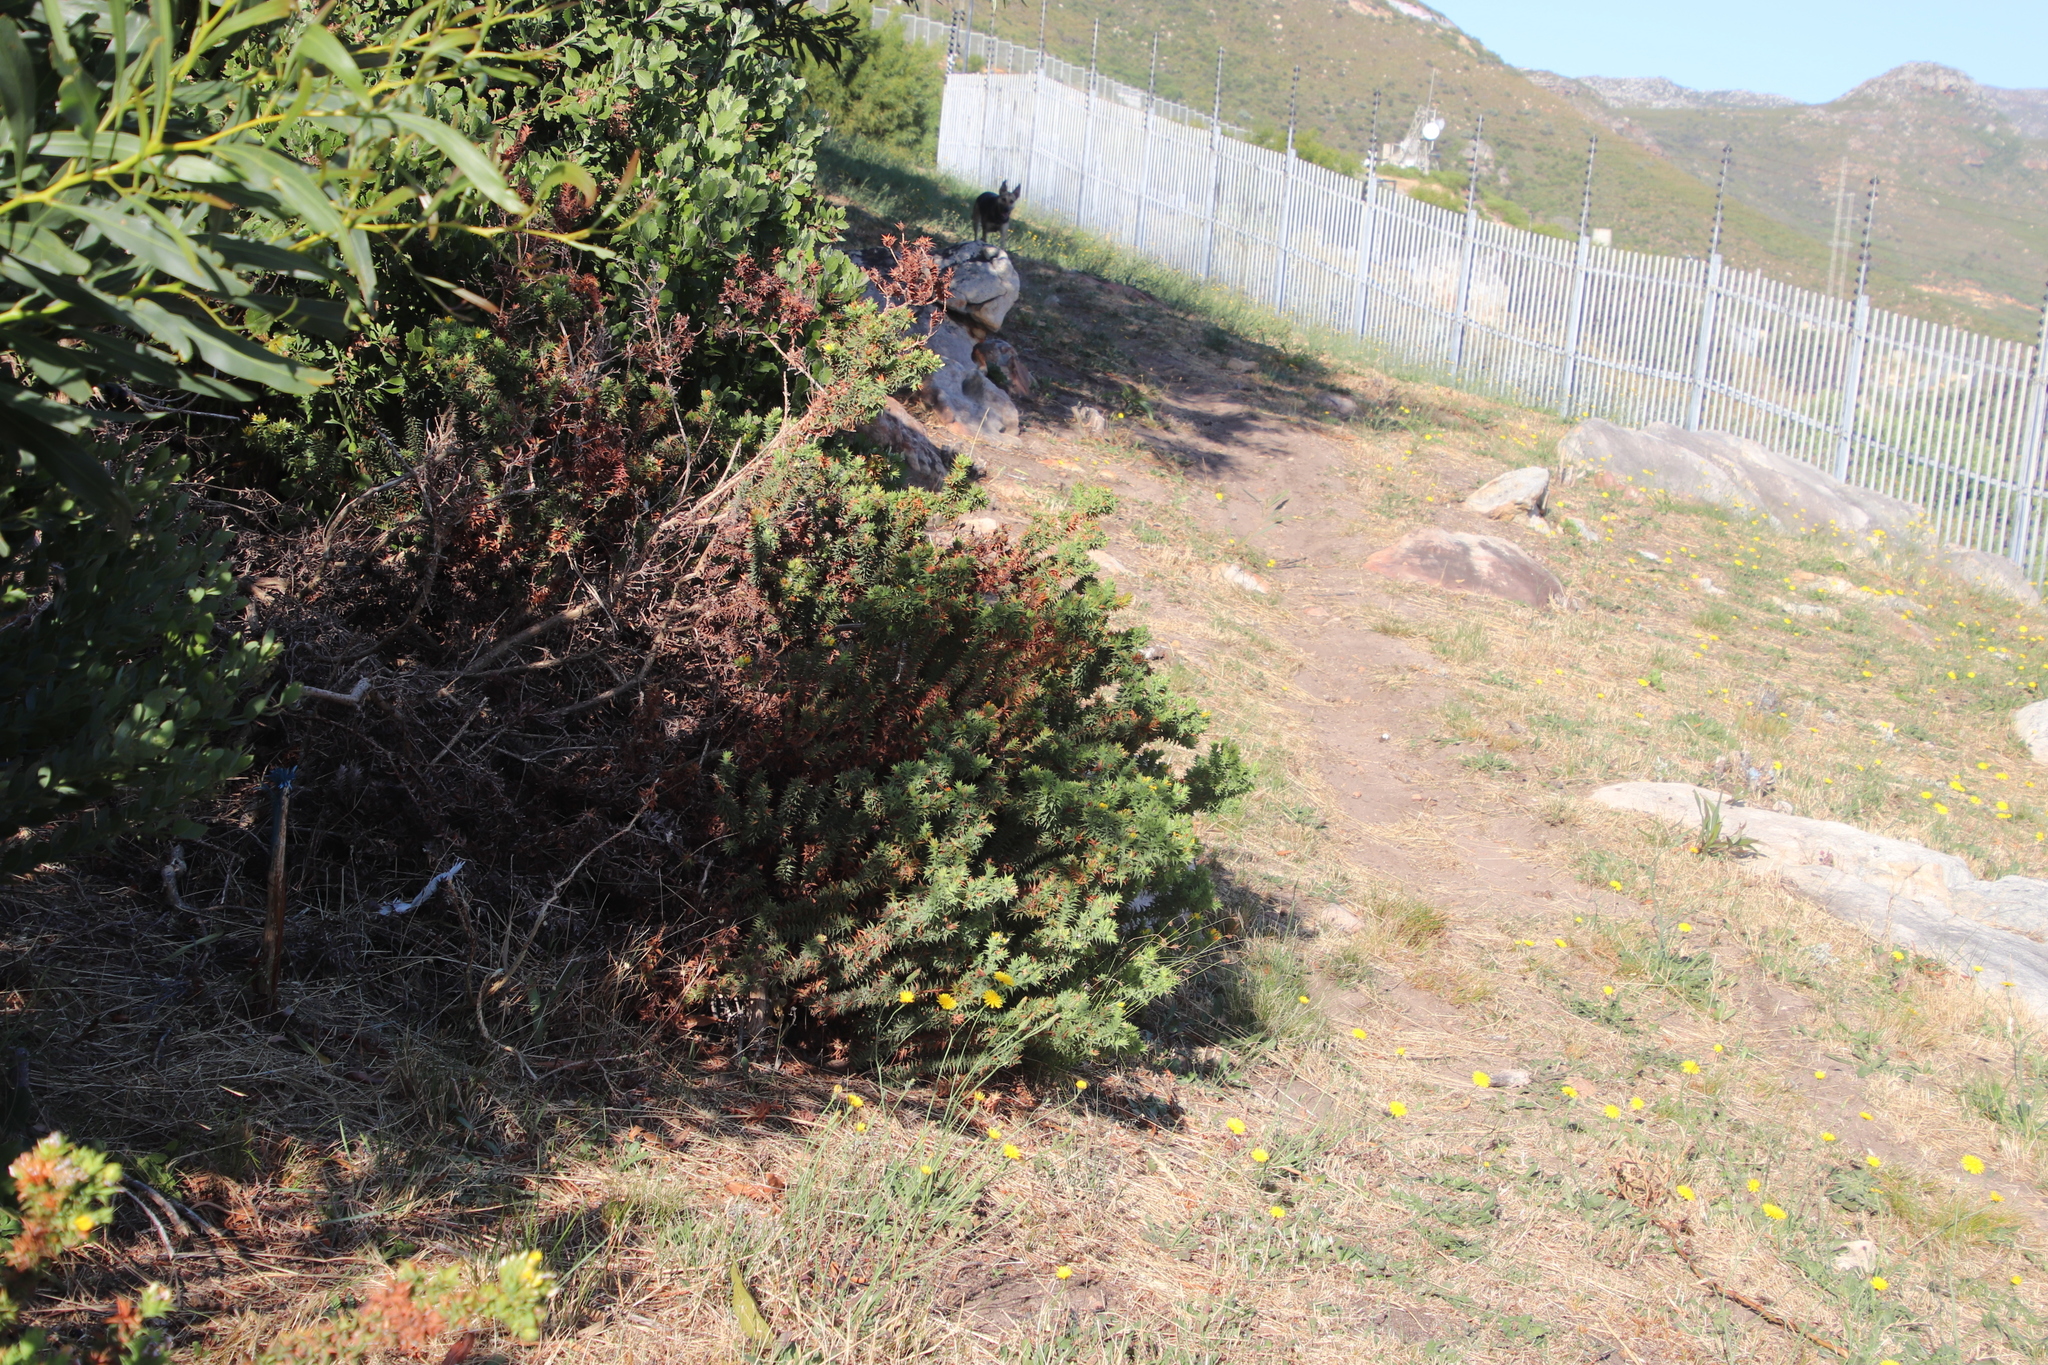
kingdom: Plantae
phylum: Tracheophyta
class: Magnoliopsida
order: Fabales
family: Fabaceae
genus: Aspalathus
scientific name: Aspalathus cordata
